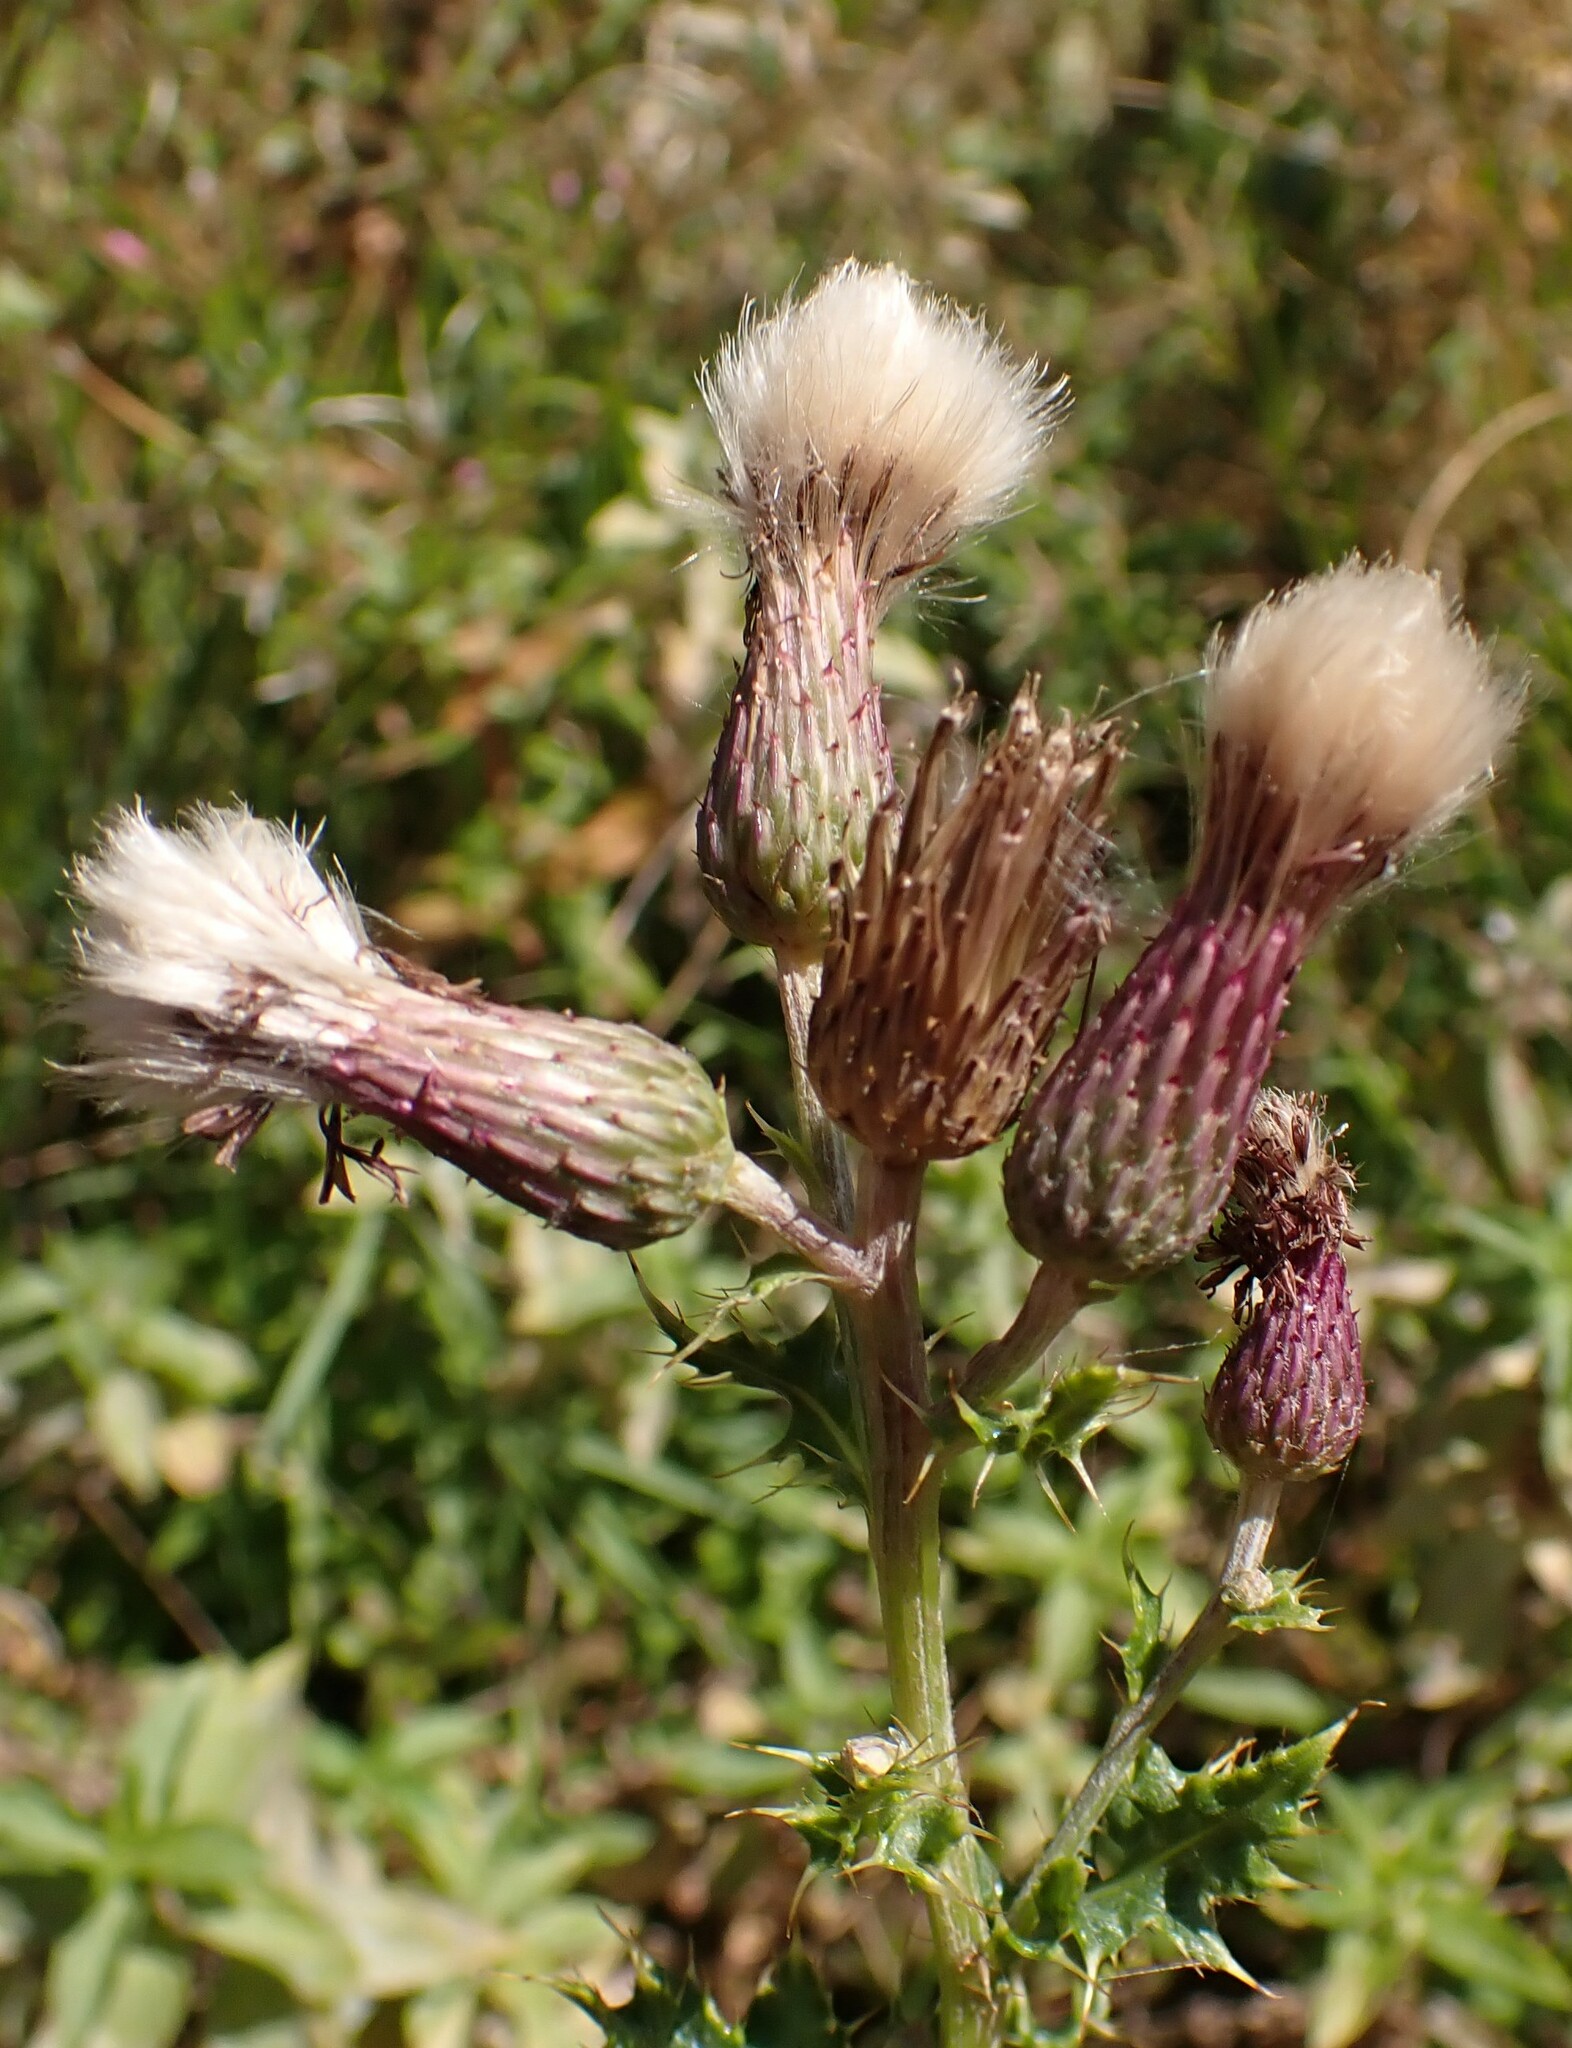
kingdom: Plantae
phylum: Tracheophyta
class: Magnoliopsida
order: Asterales
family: Asteraceae
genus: Cirsium
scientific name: Cirsium arvense
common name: Creeping thistle
